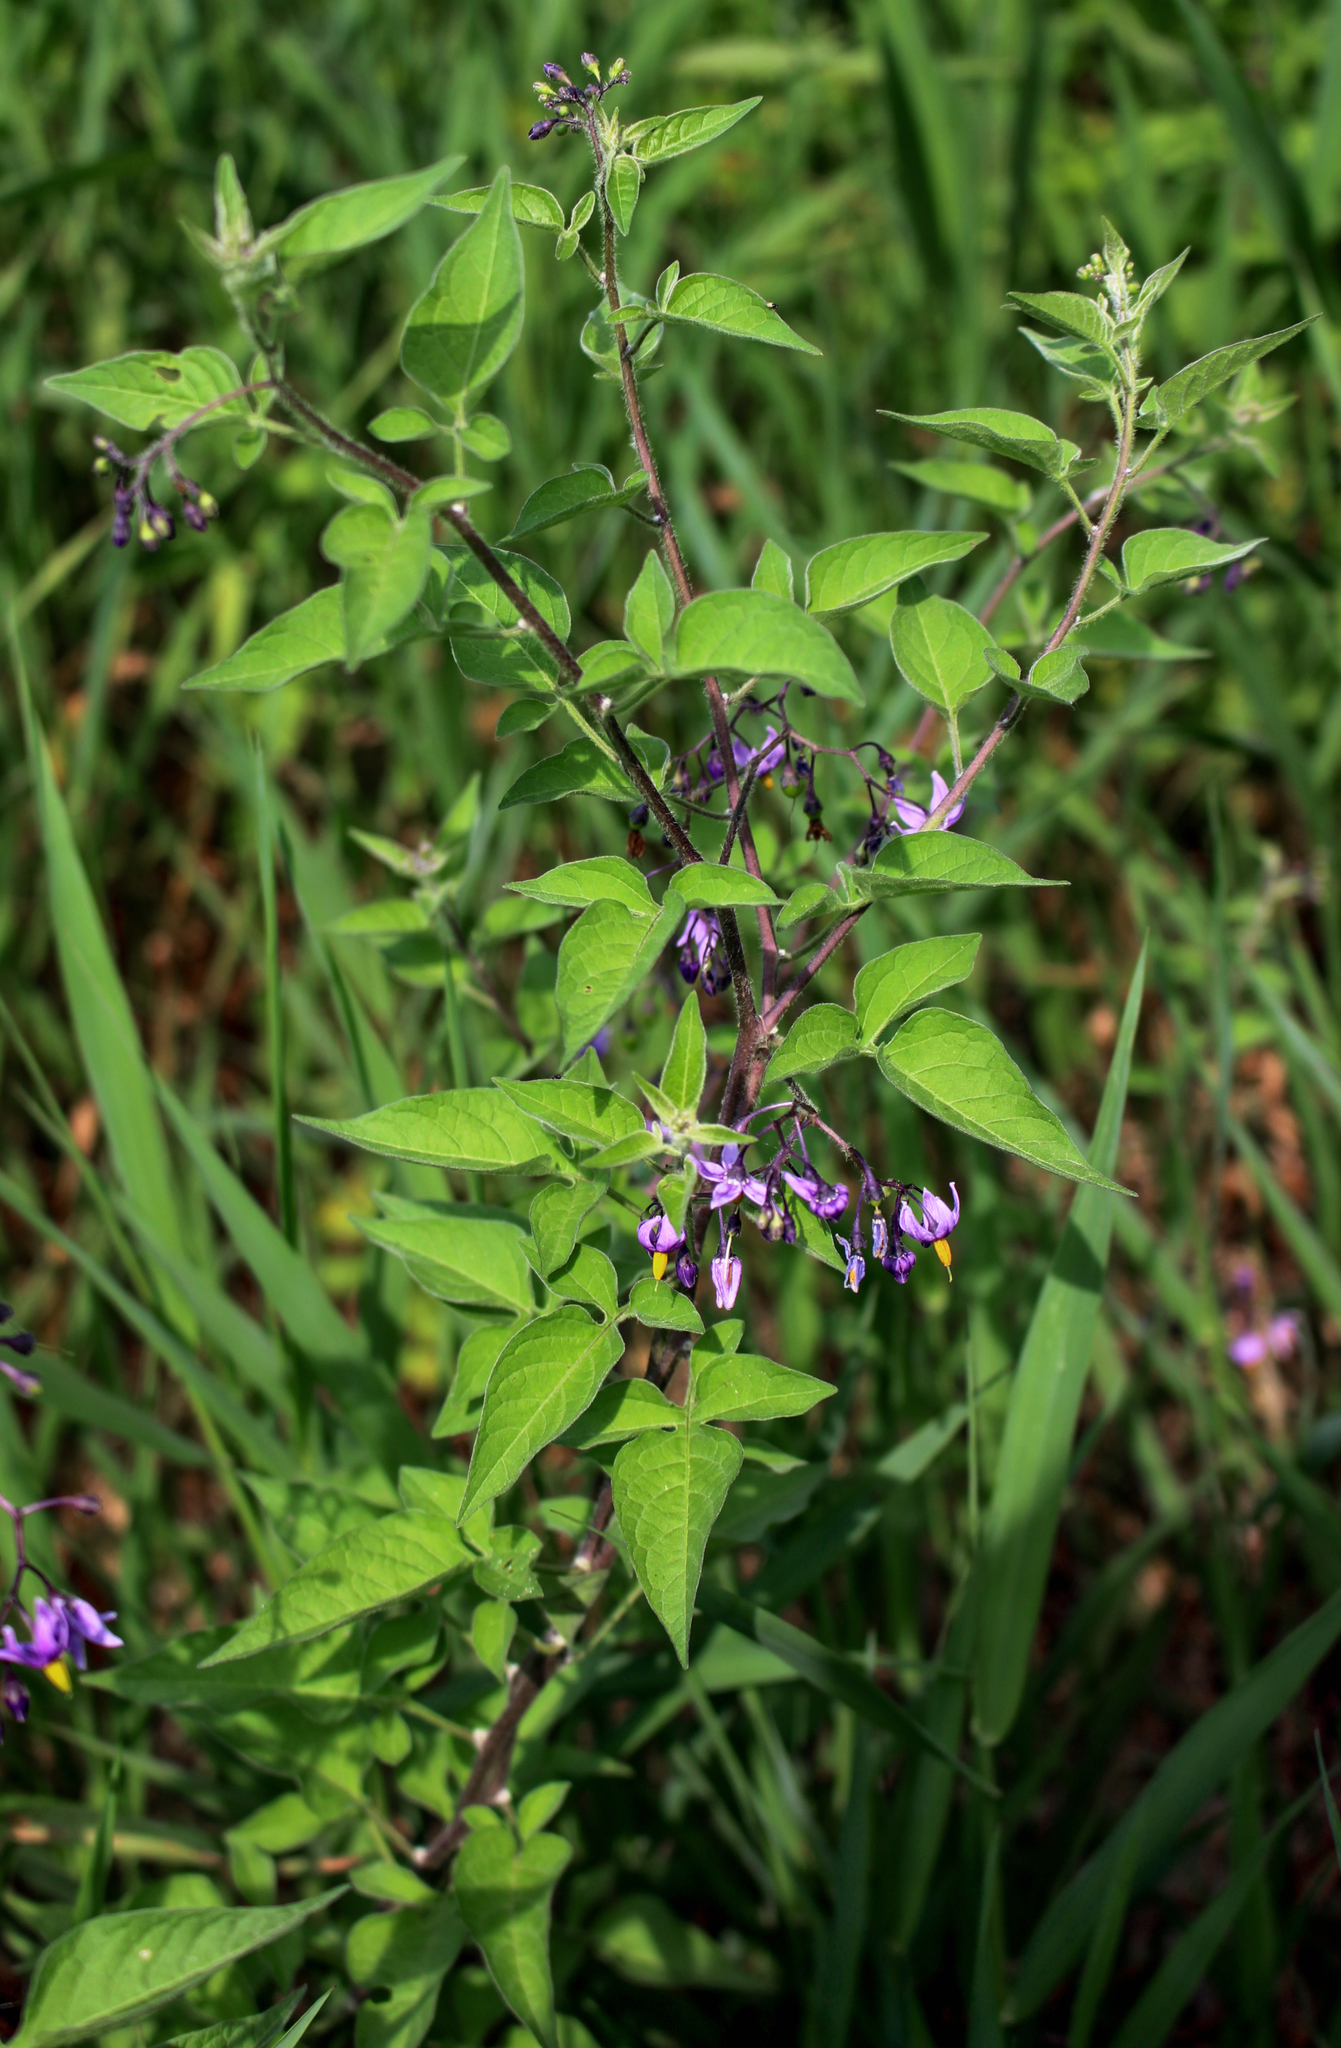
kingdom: Plantae
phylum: Tracheophyta
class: Magnoliopsida
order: Solanales
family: Solanaceae
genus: Solanum
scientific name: Solanum dulcamara
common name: Climbing nightshade
